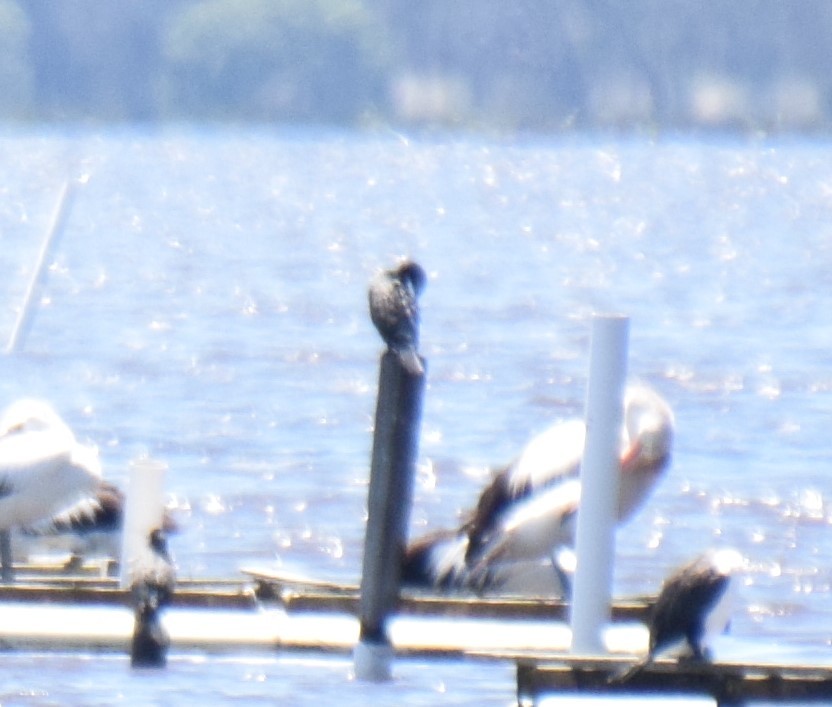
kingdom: Animalia
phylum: Chordata
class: Aves
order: Suliformes
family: Phalacrocoracidae
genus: Phalacrocorax
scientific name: Phalacrocorax sulcirostris
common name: Little black cormorant
